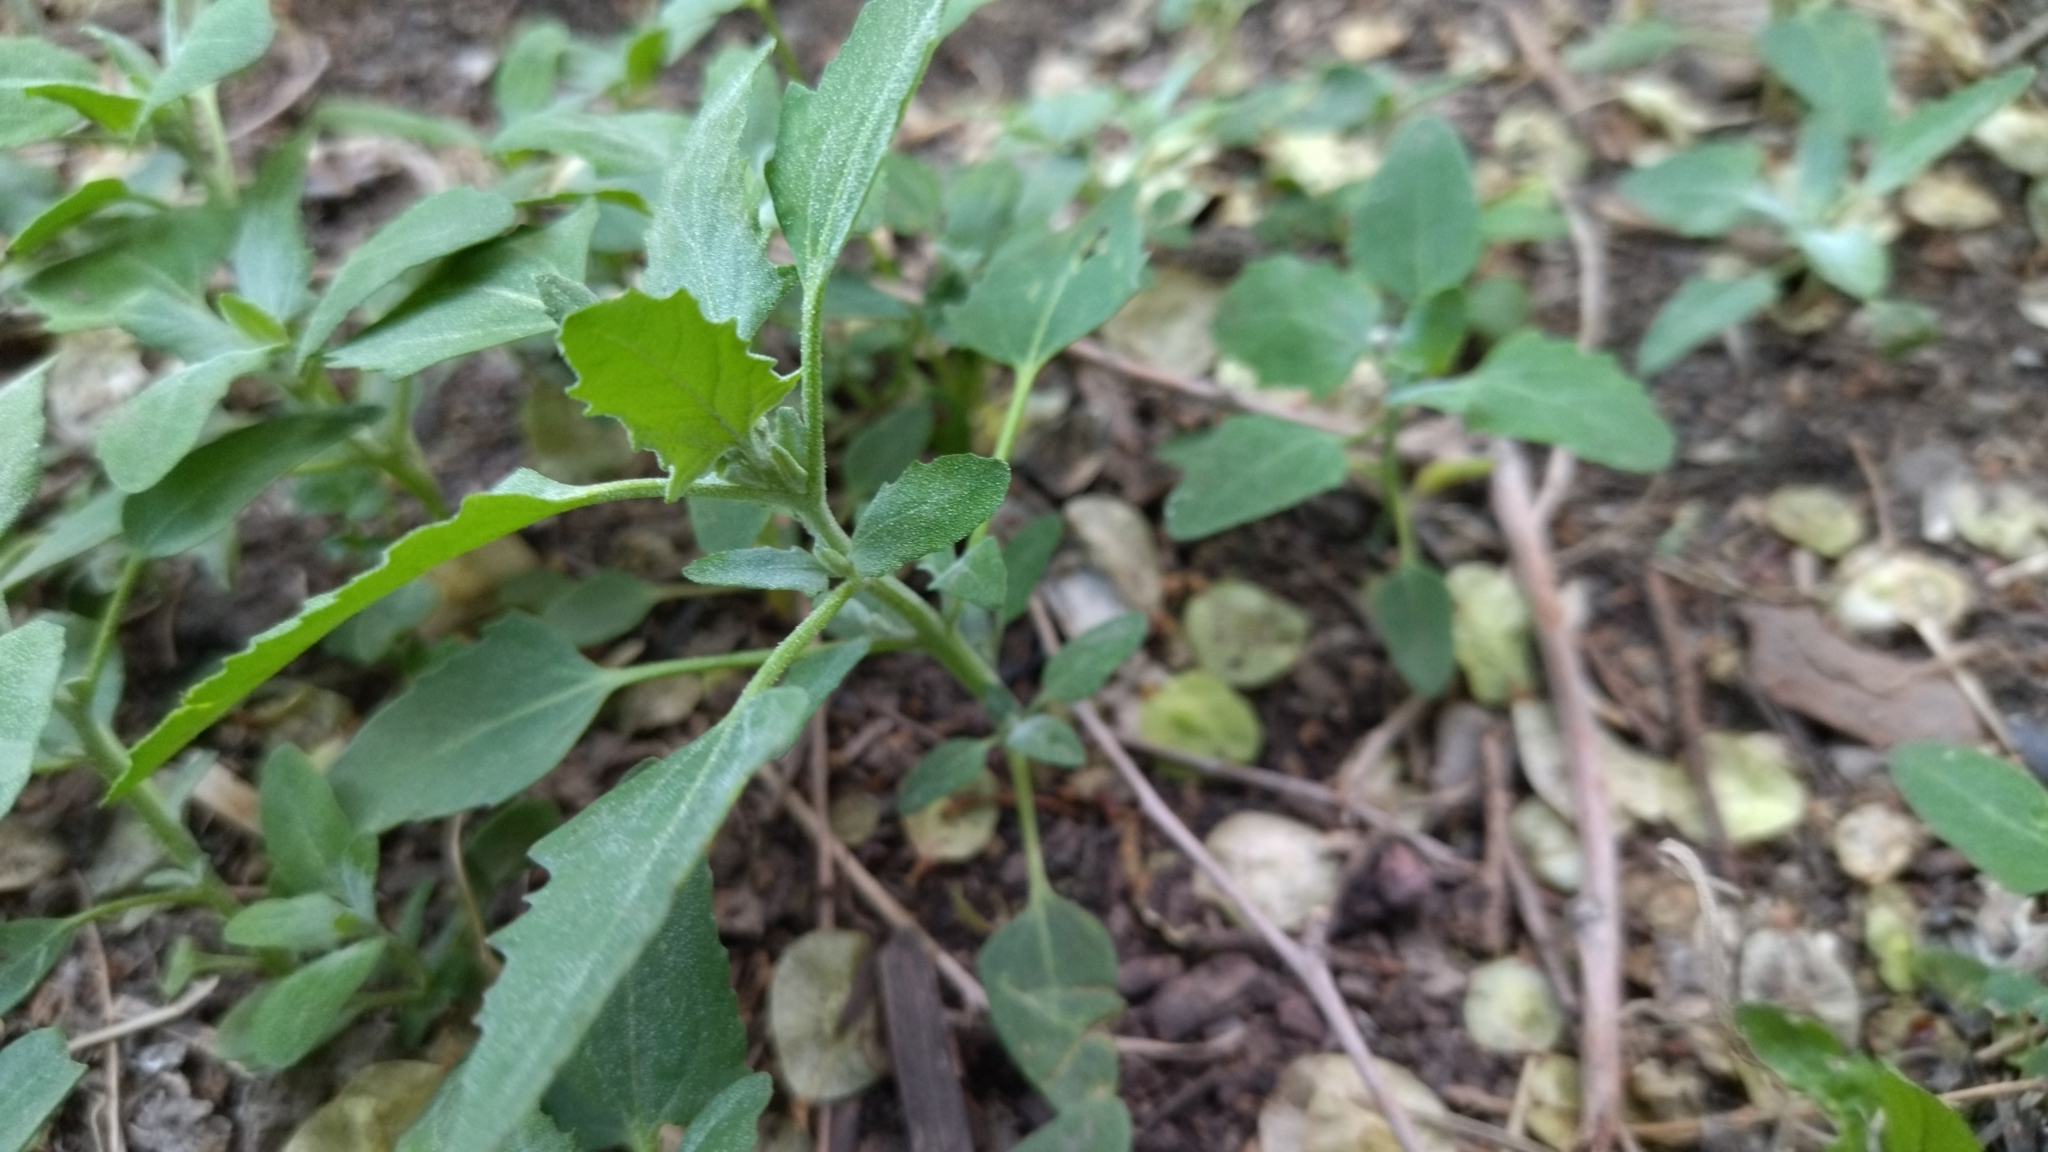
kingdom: Plantae
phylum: Tracheophyta
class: Magnoliopsida
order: Caryophyllales
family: Amaranthaceae
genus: Chenopodium
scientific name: Chenopodium album
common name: Fat-hen
